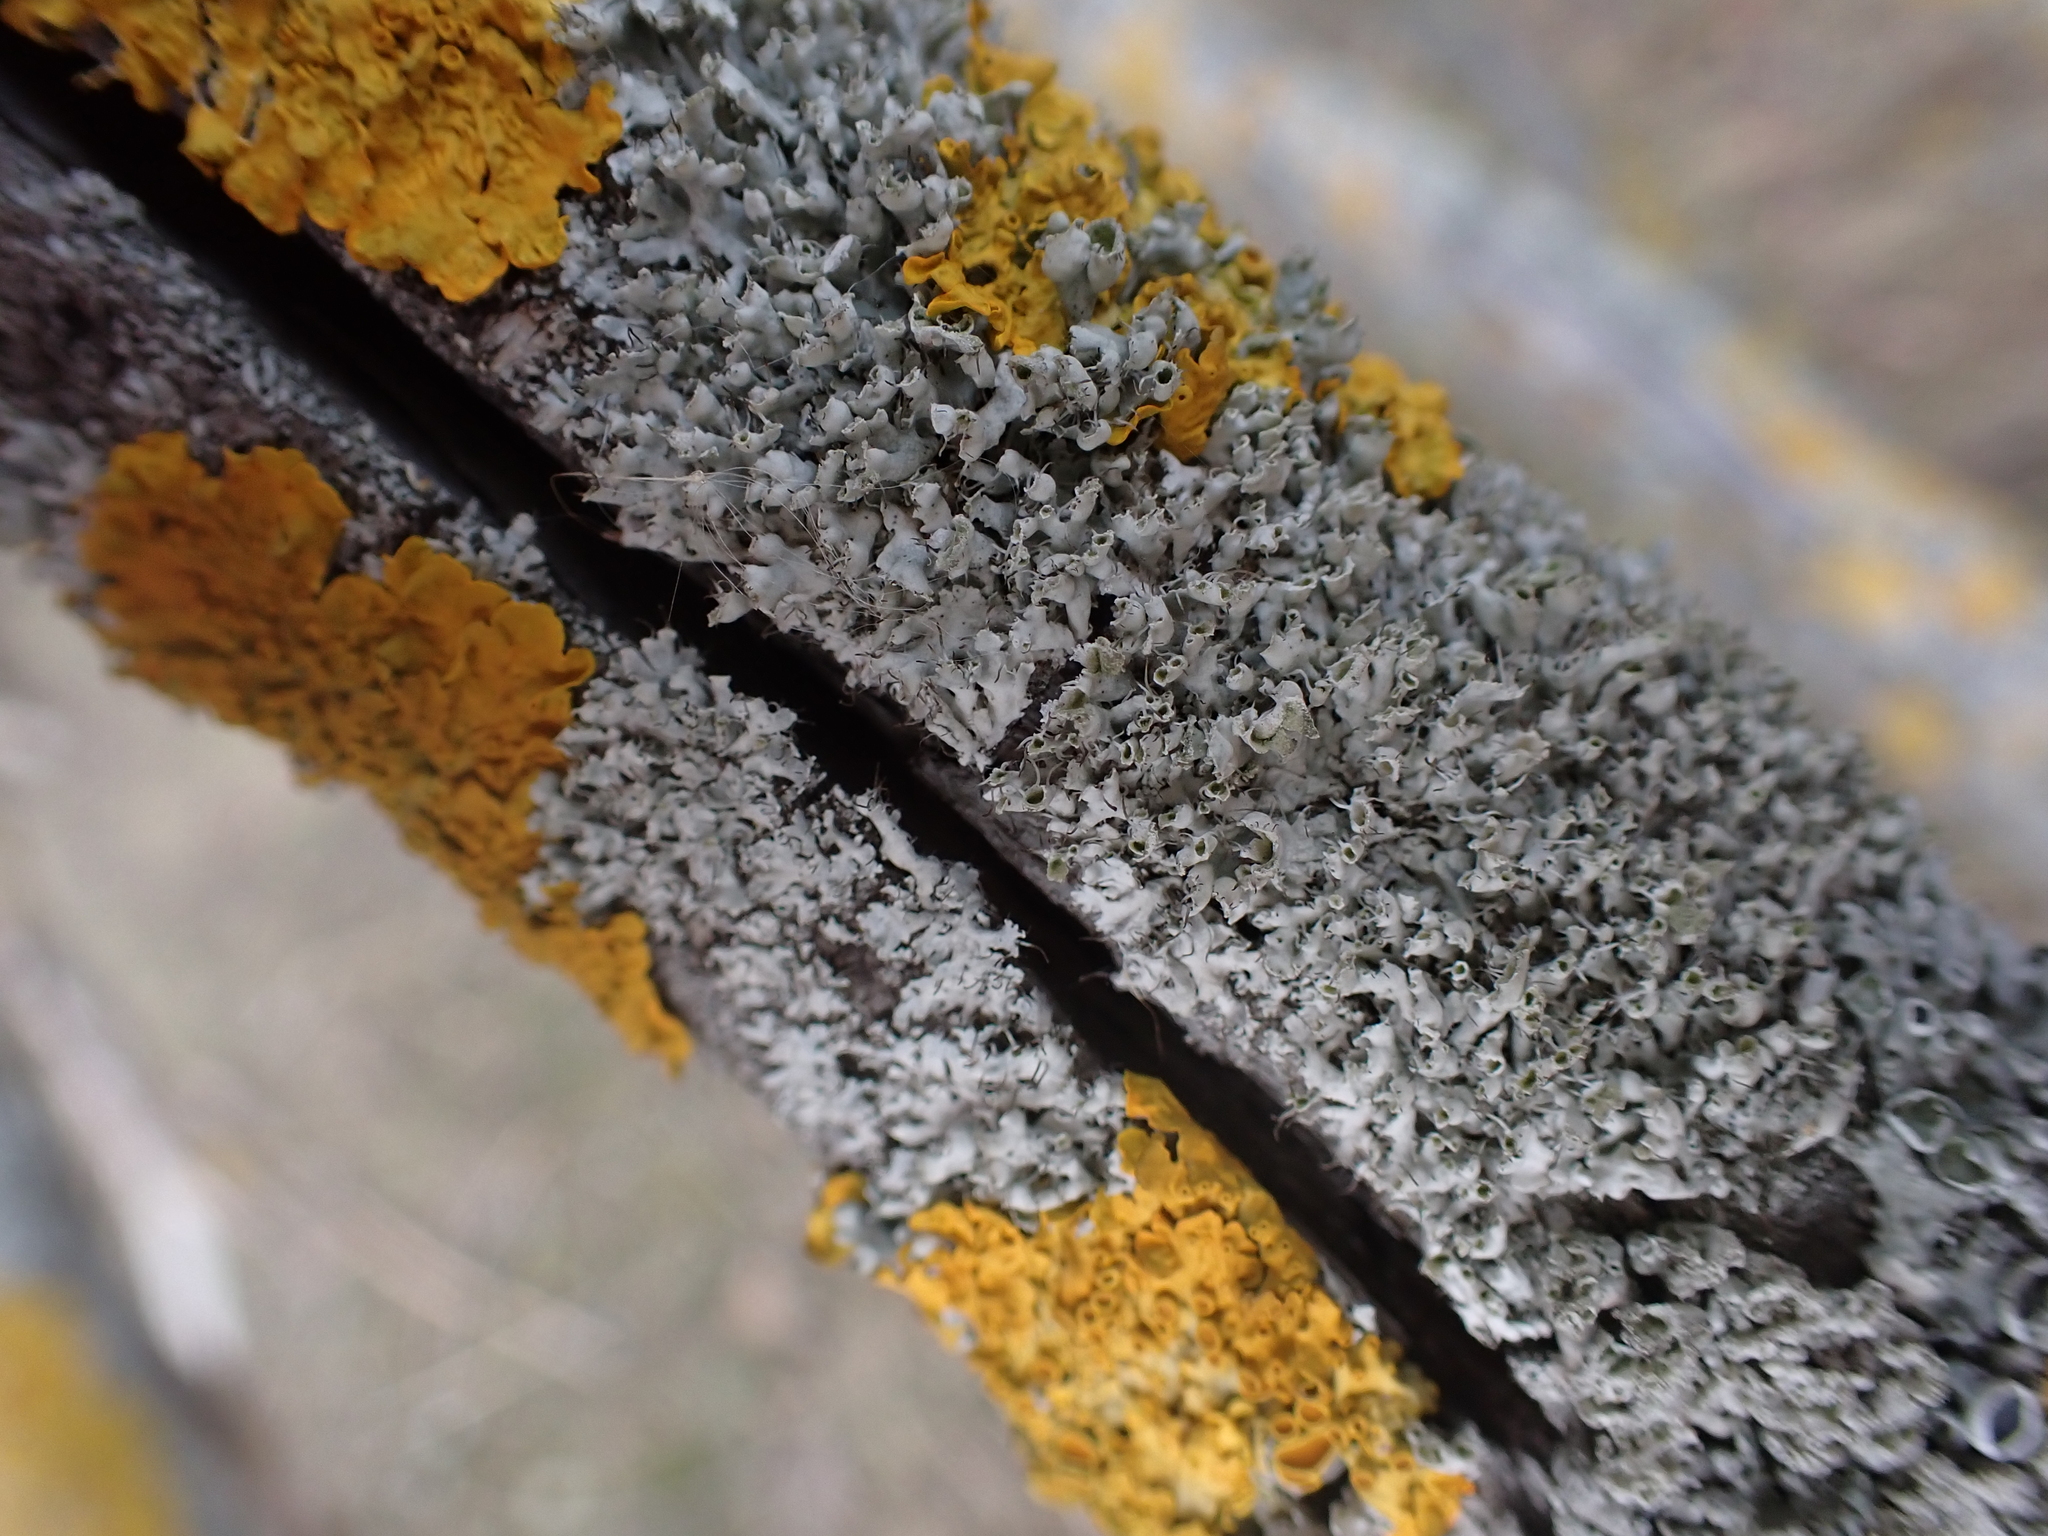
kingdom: Fungi
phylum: Ascomycota
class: Lecanoromycetes
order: Caliciales
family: Physciaceae
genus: Physcia
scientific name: Physcia adscendens
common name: Hooded rosette lichen
